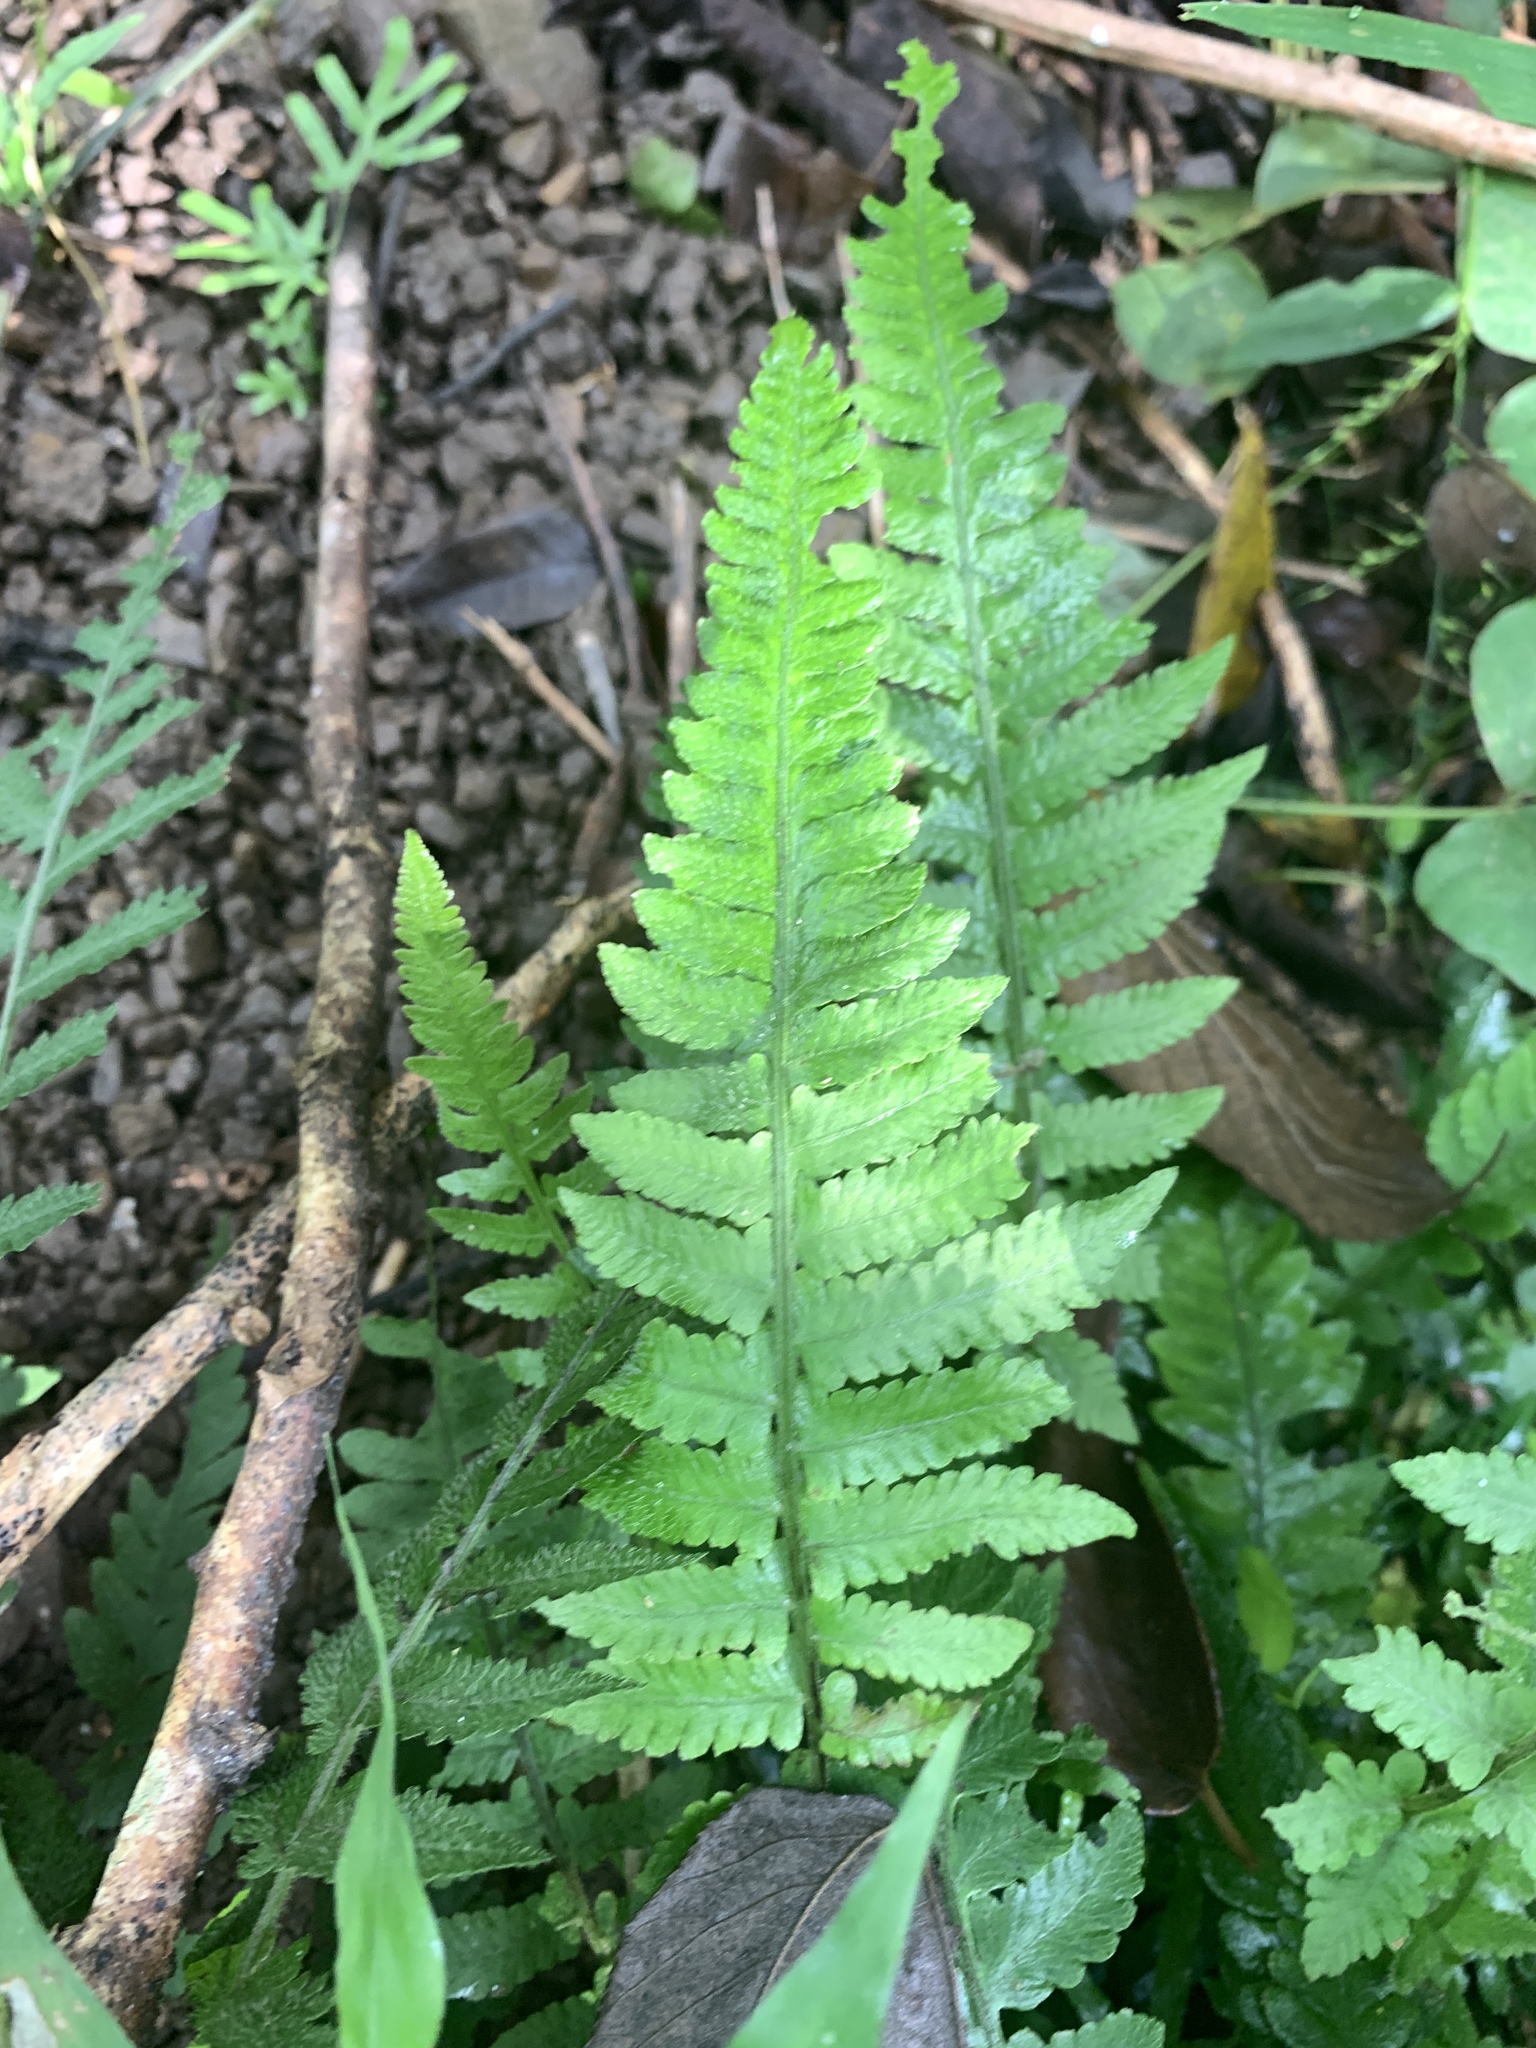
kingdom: Plantae
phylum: Tracheophyta
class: Polypodiopsida
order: Polypodiales
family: Athyriaceae
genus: Deparia
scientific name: Deparia petersenii
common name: Japanese false spleenwort
